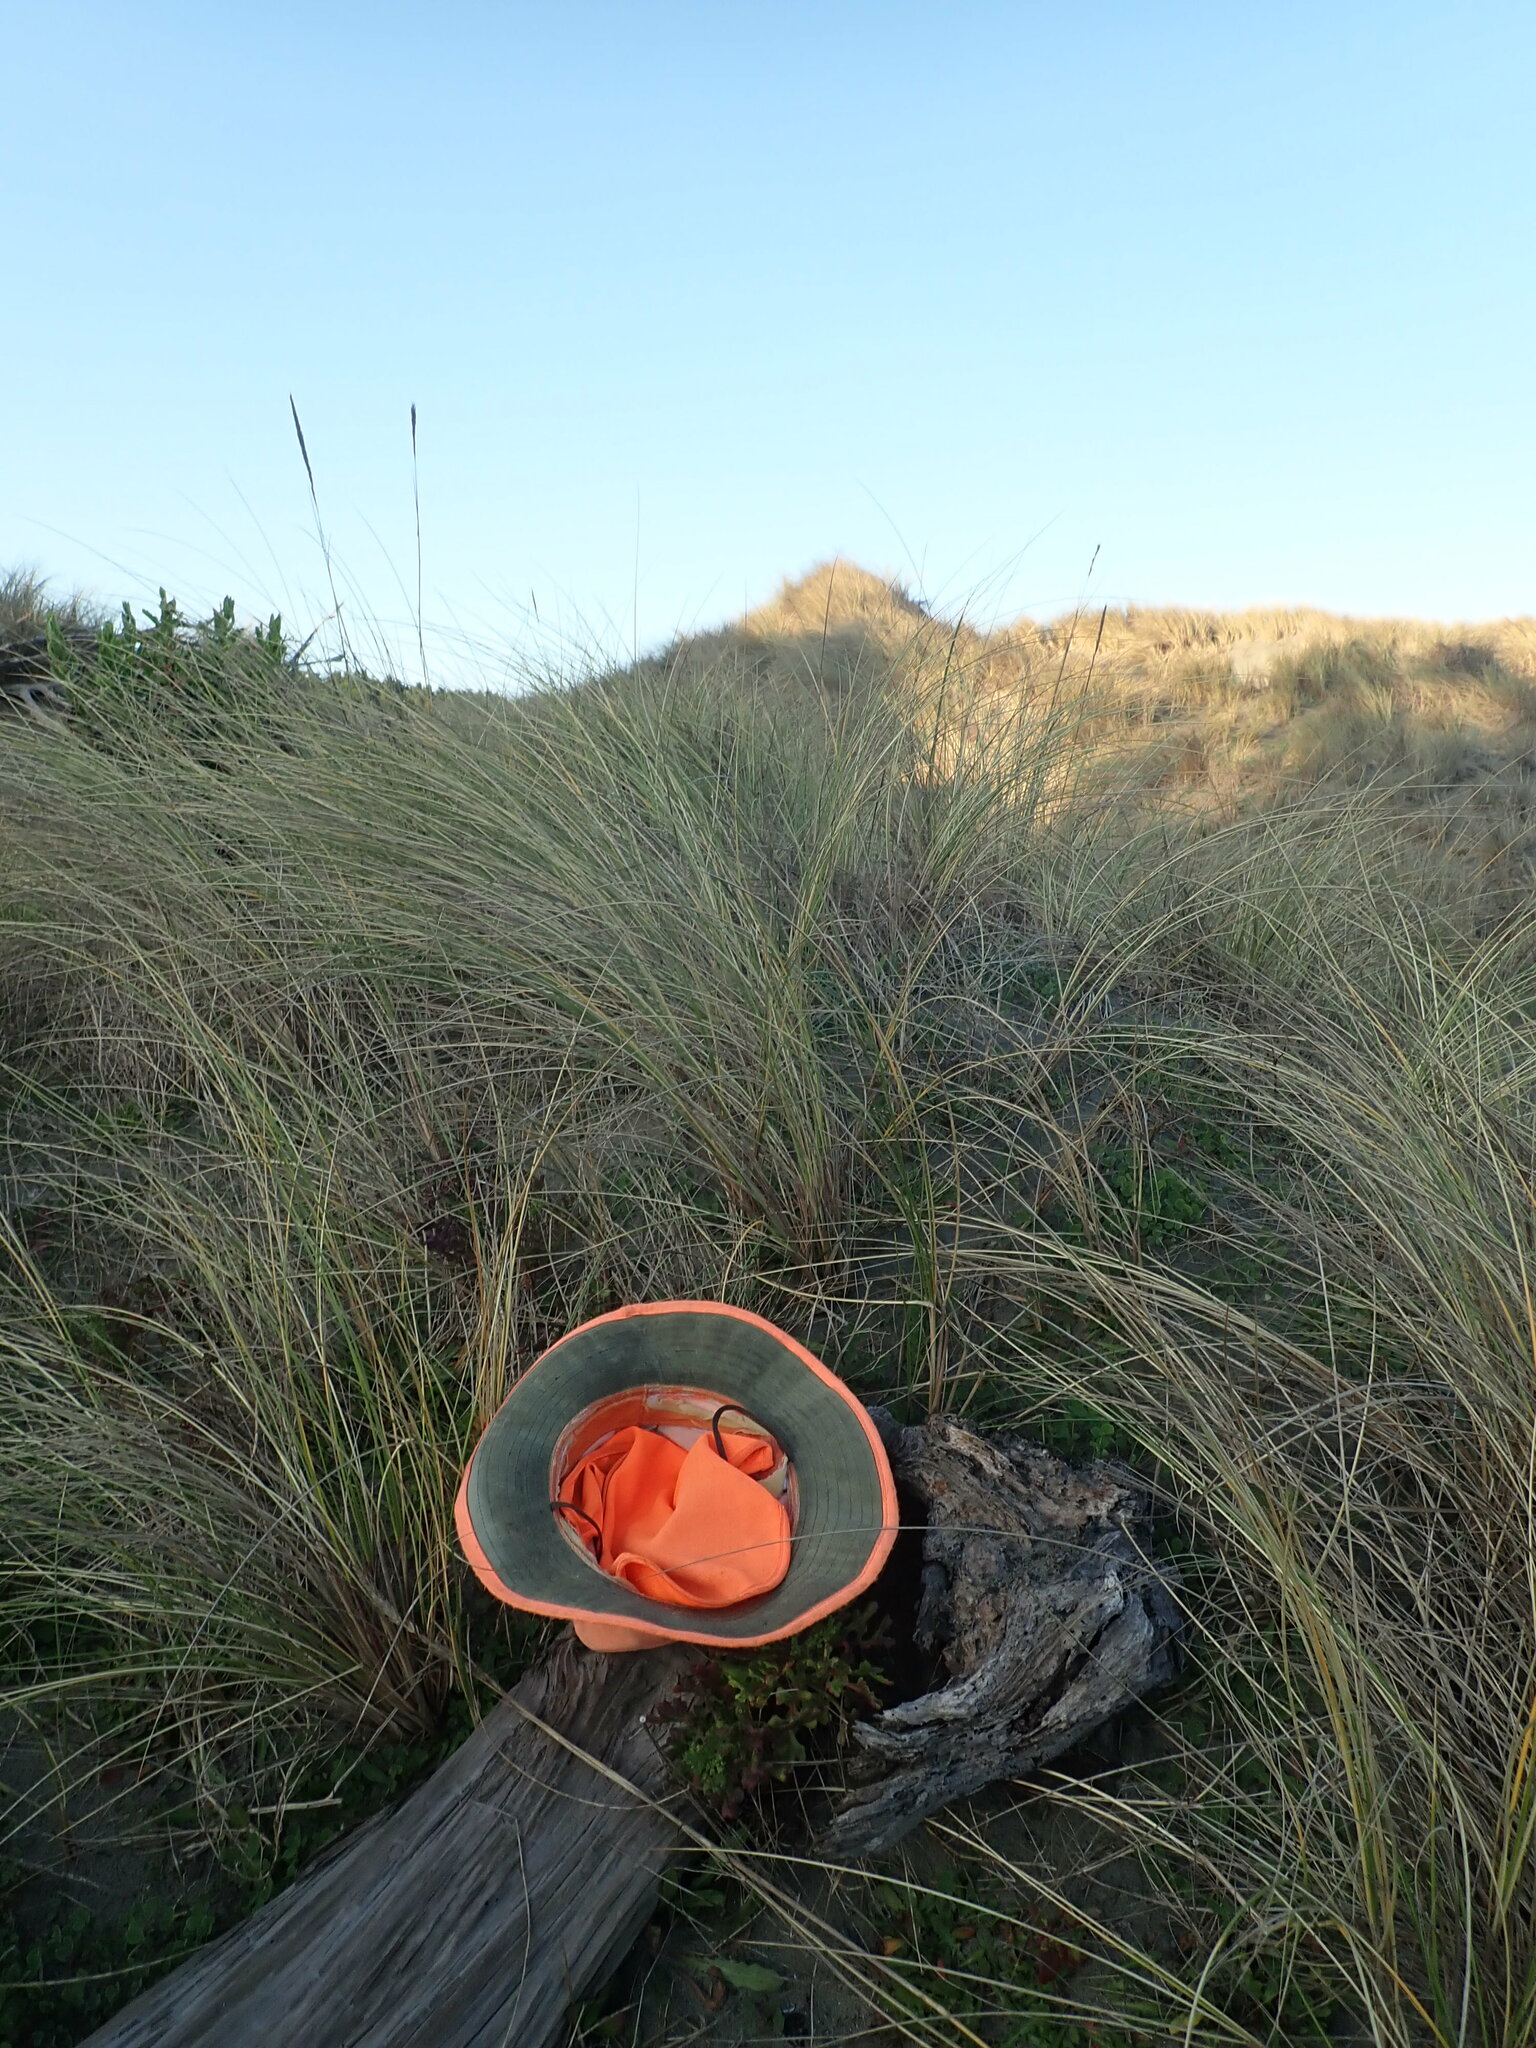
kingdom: Animalia
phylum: Arthropoda
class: Arachnida
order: Araneae
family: Theridiidae
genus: Latrodectus
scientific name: Latrodectus katipo
